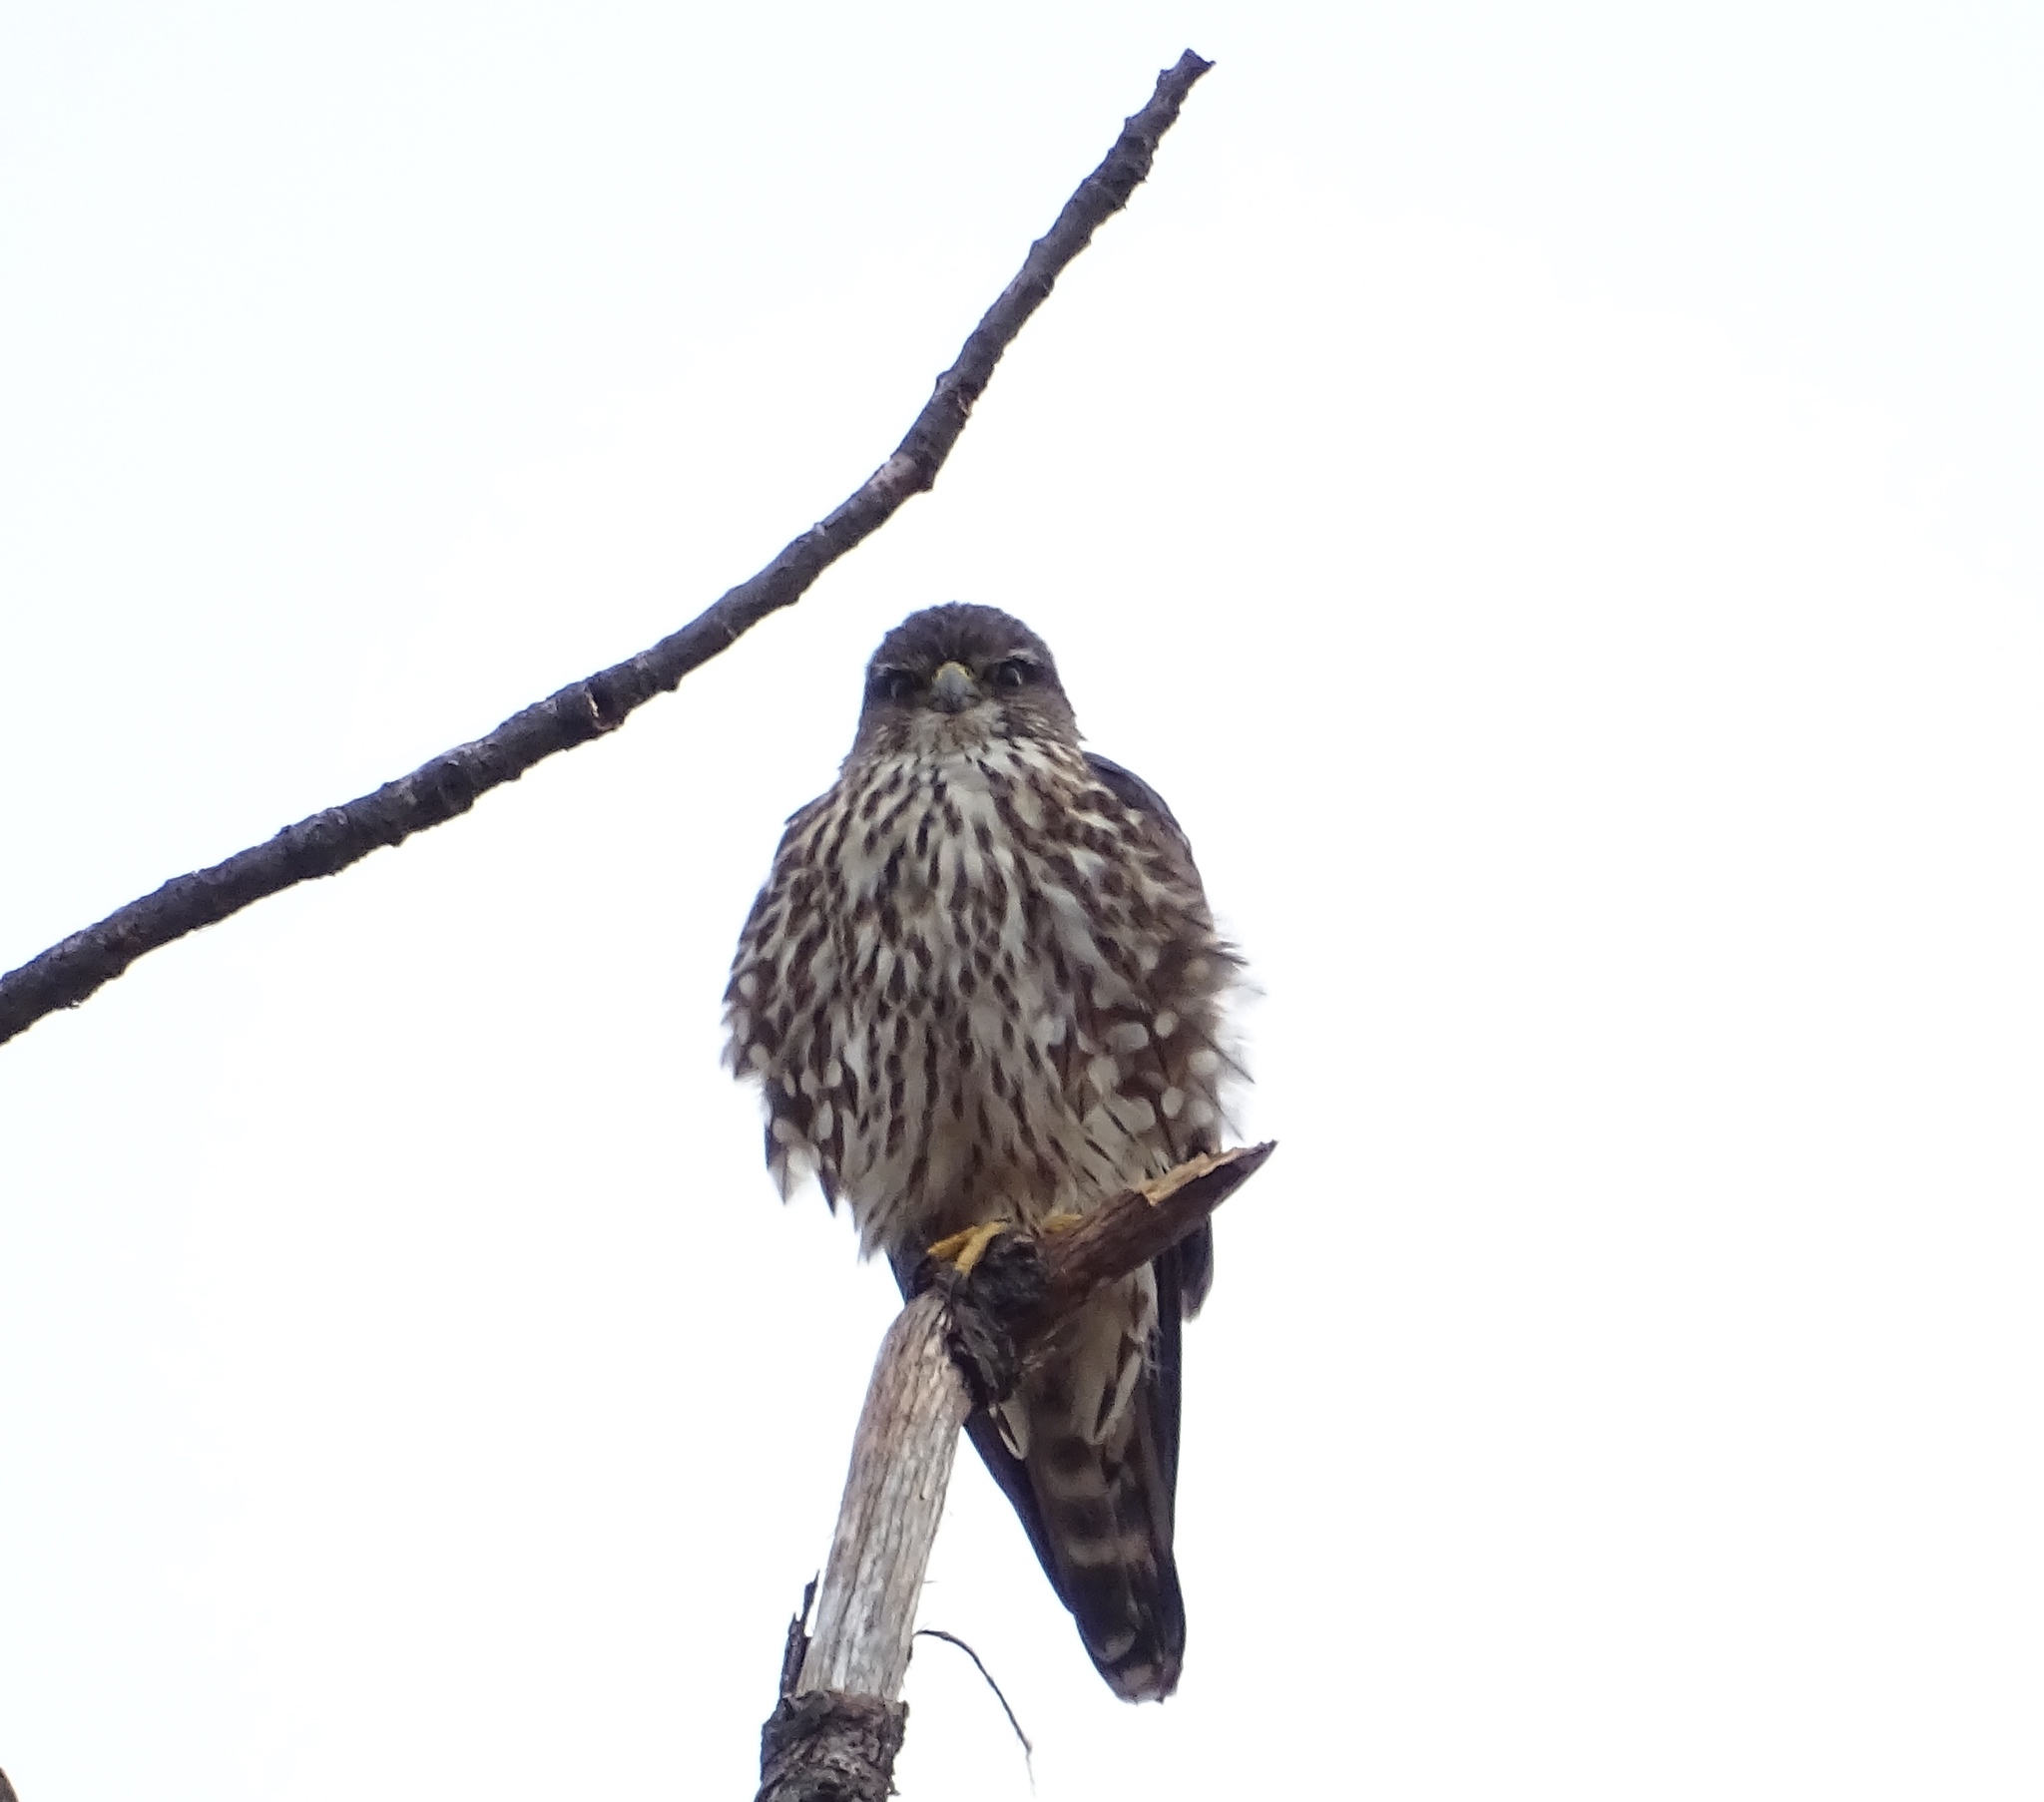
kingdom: Animalia
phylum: Chordata
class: Aves
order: Falconiformes
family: Falconidae
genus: Falco
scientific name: Falco columbarius
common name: Merlin
